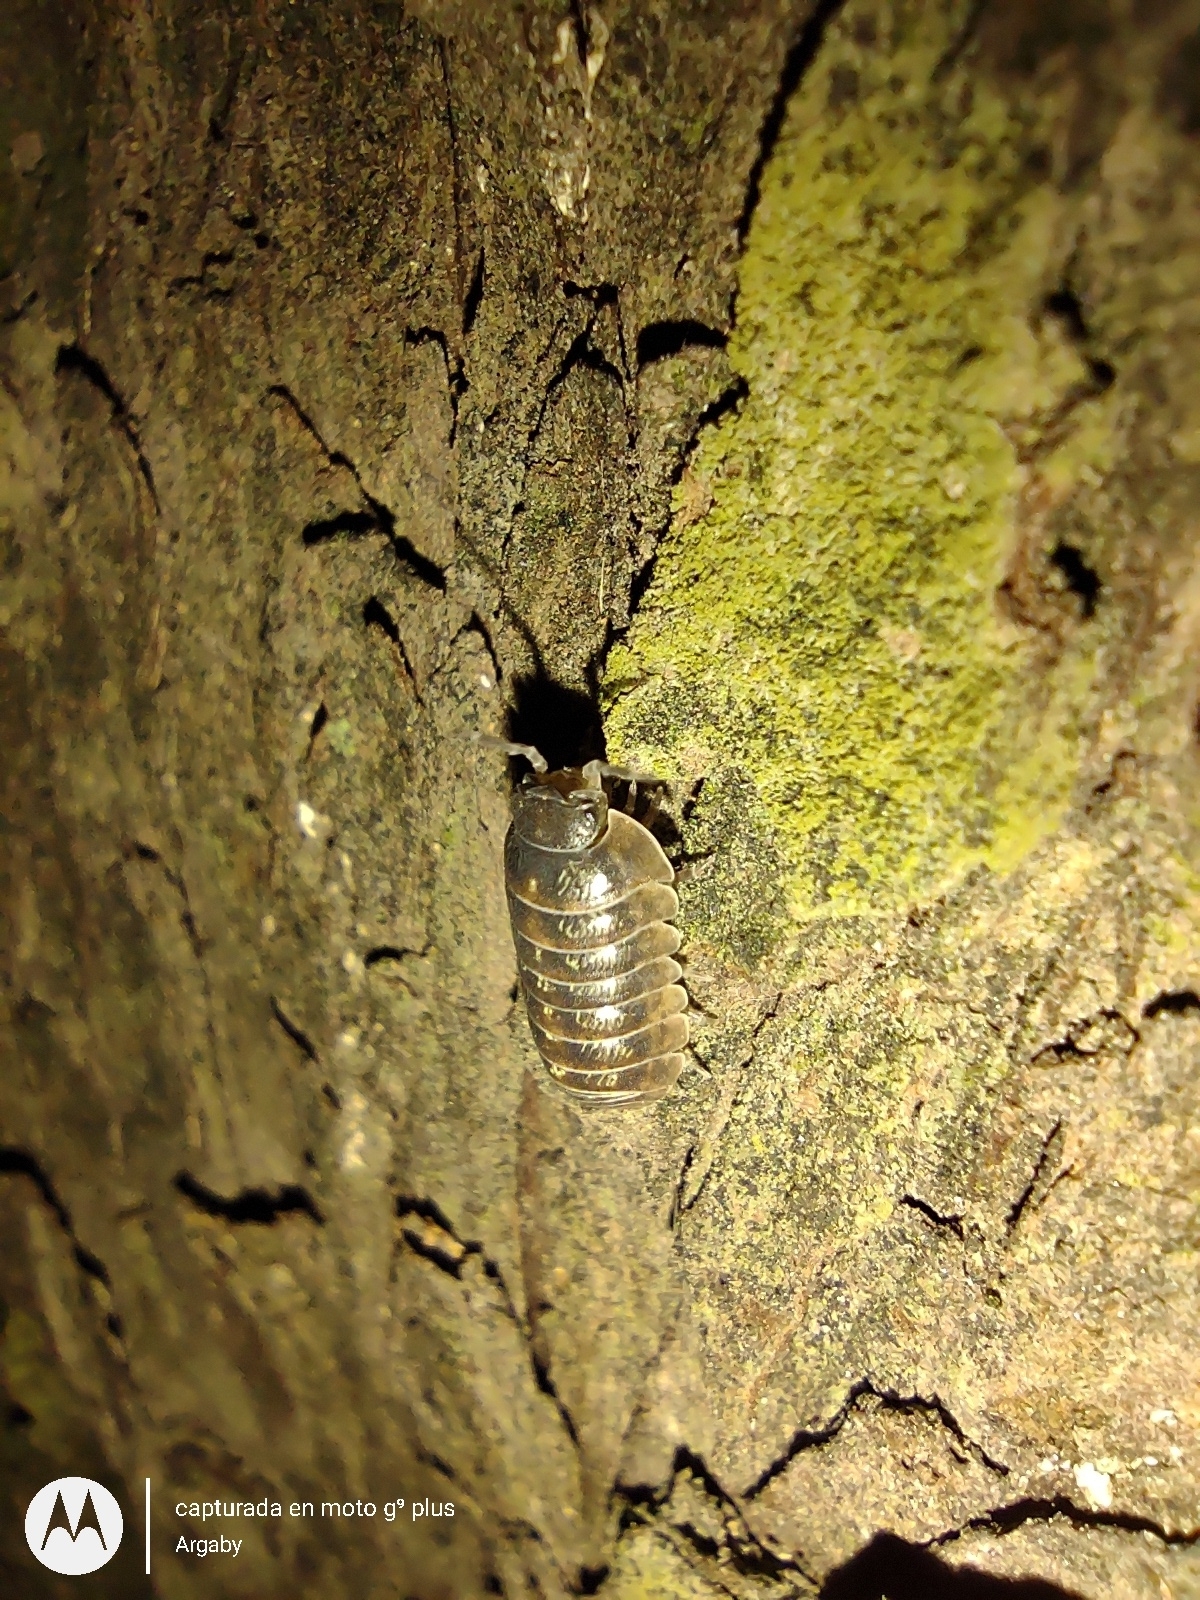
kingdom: Animalia
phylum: Arthropoda
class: Malacostraca
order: Isopoda
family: Armadillidiidae
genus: Armadillidium
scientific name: Armadillidium vulgare
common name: Common pill woodlouse
